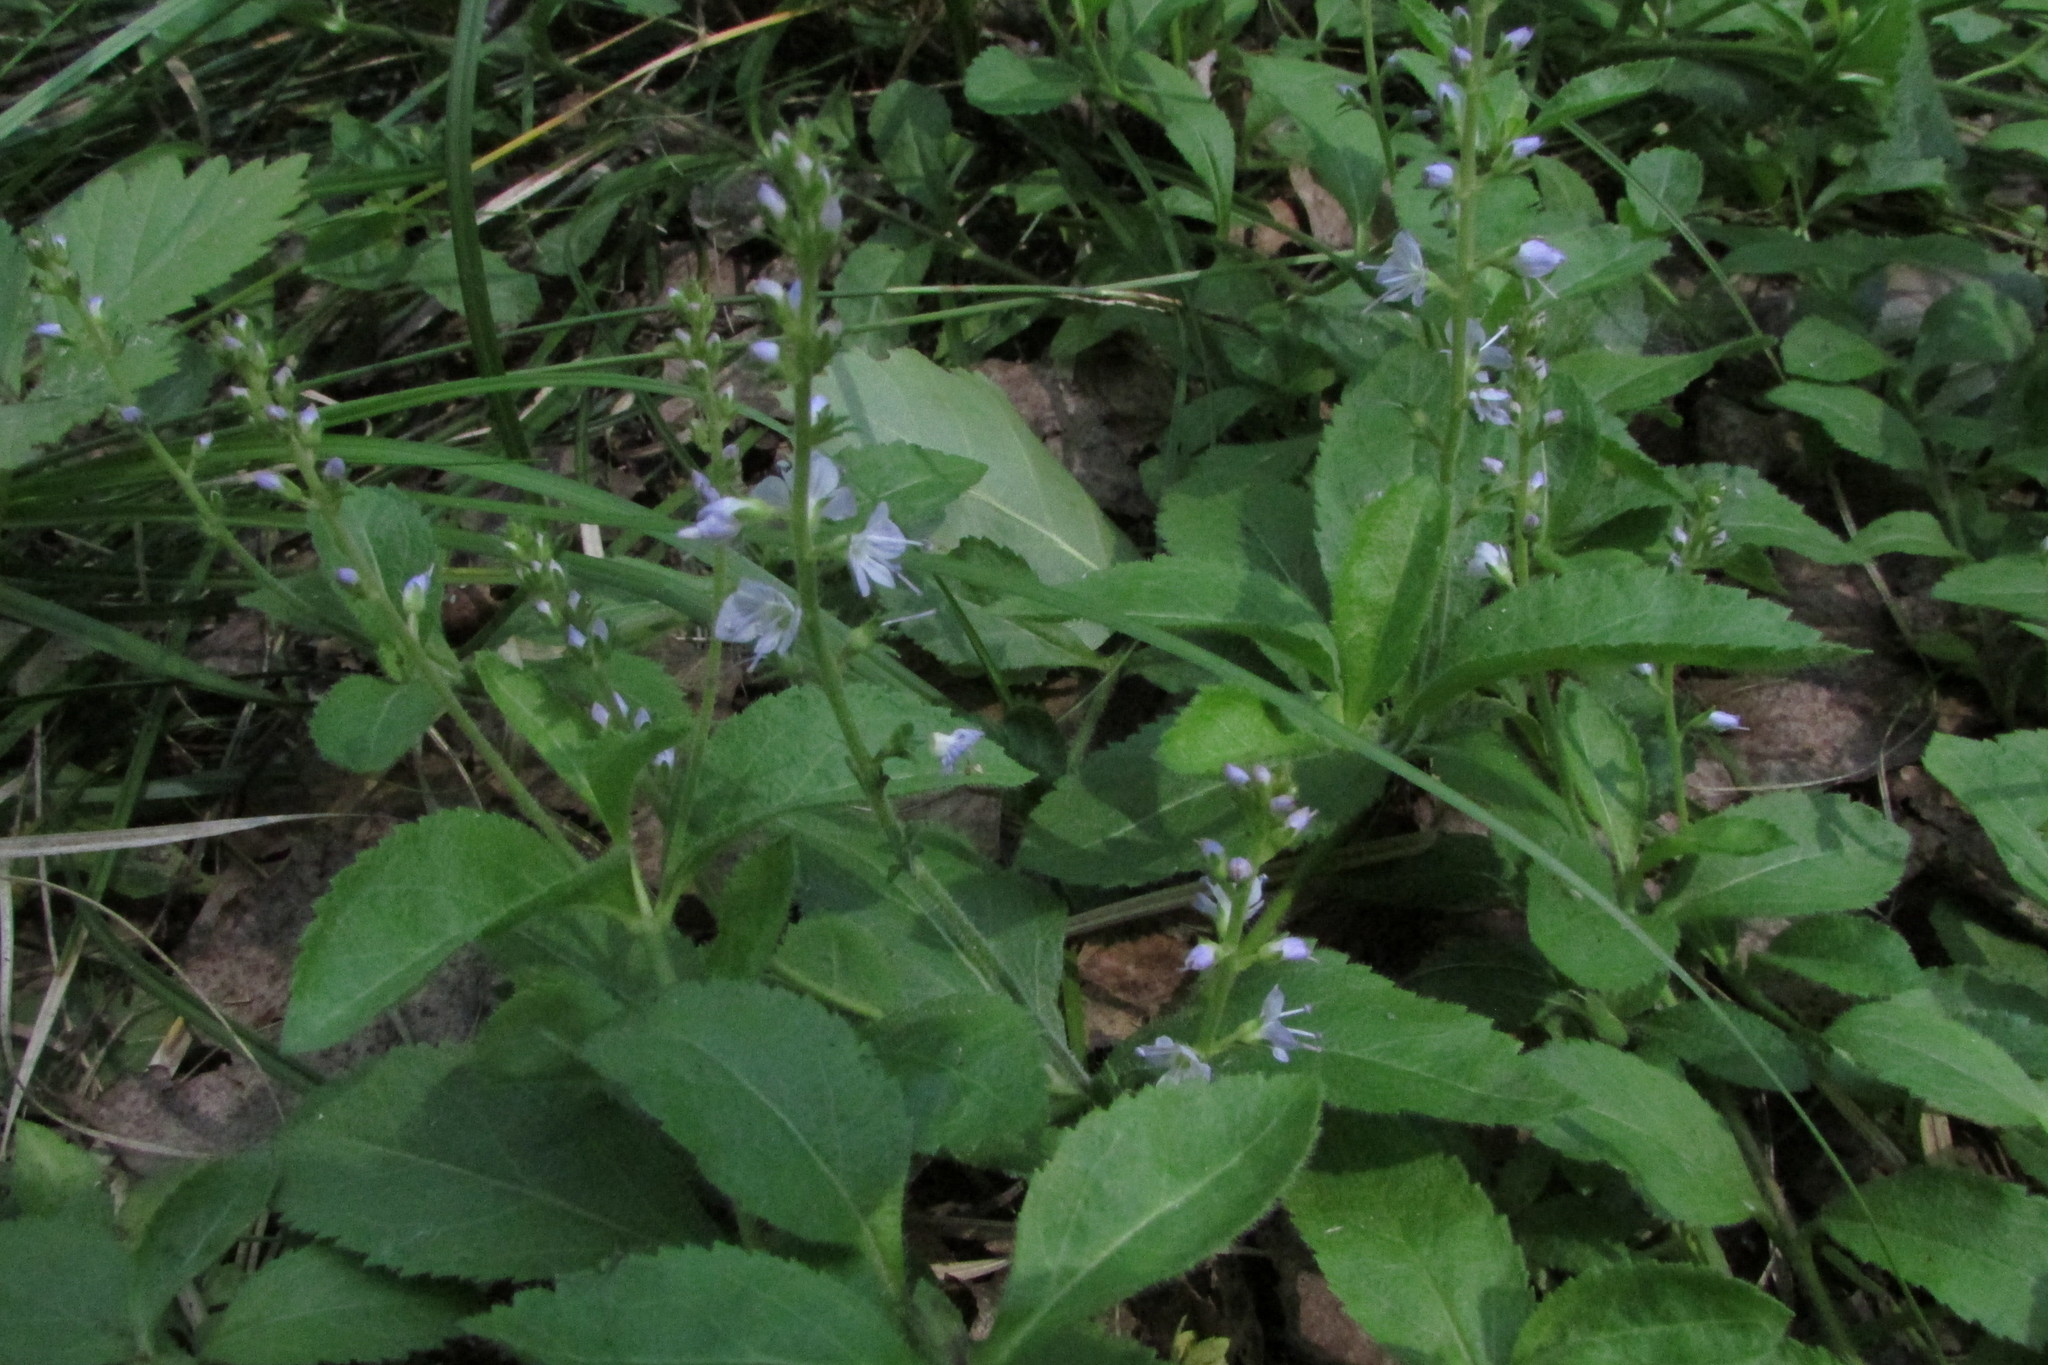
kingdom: Plantae
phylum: Tracheophyta
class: Magnoliopsida
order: Lamiales
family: Plantaginaceae
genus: Veronica
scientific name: Veronica officinalis
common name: Common speedwell
